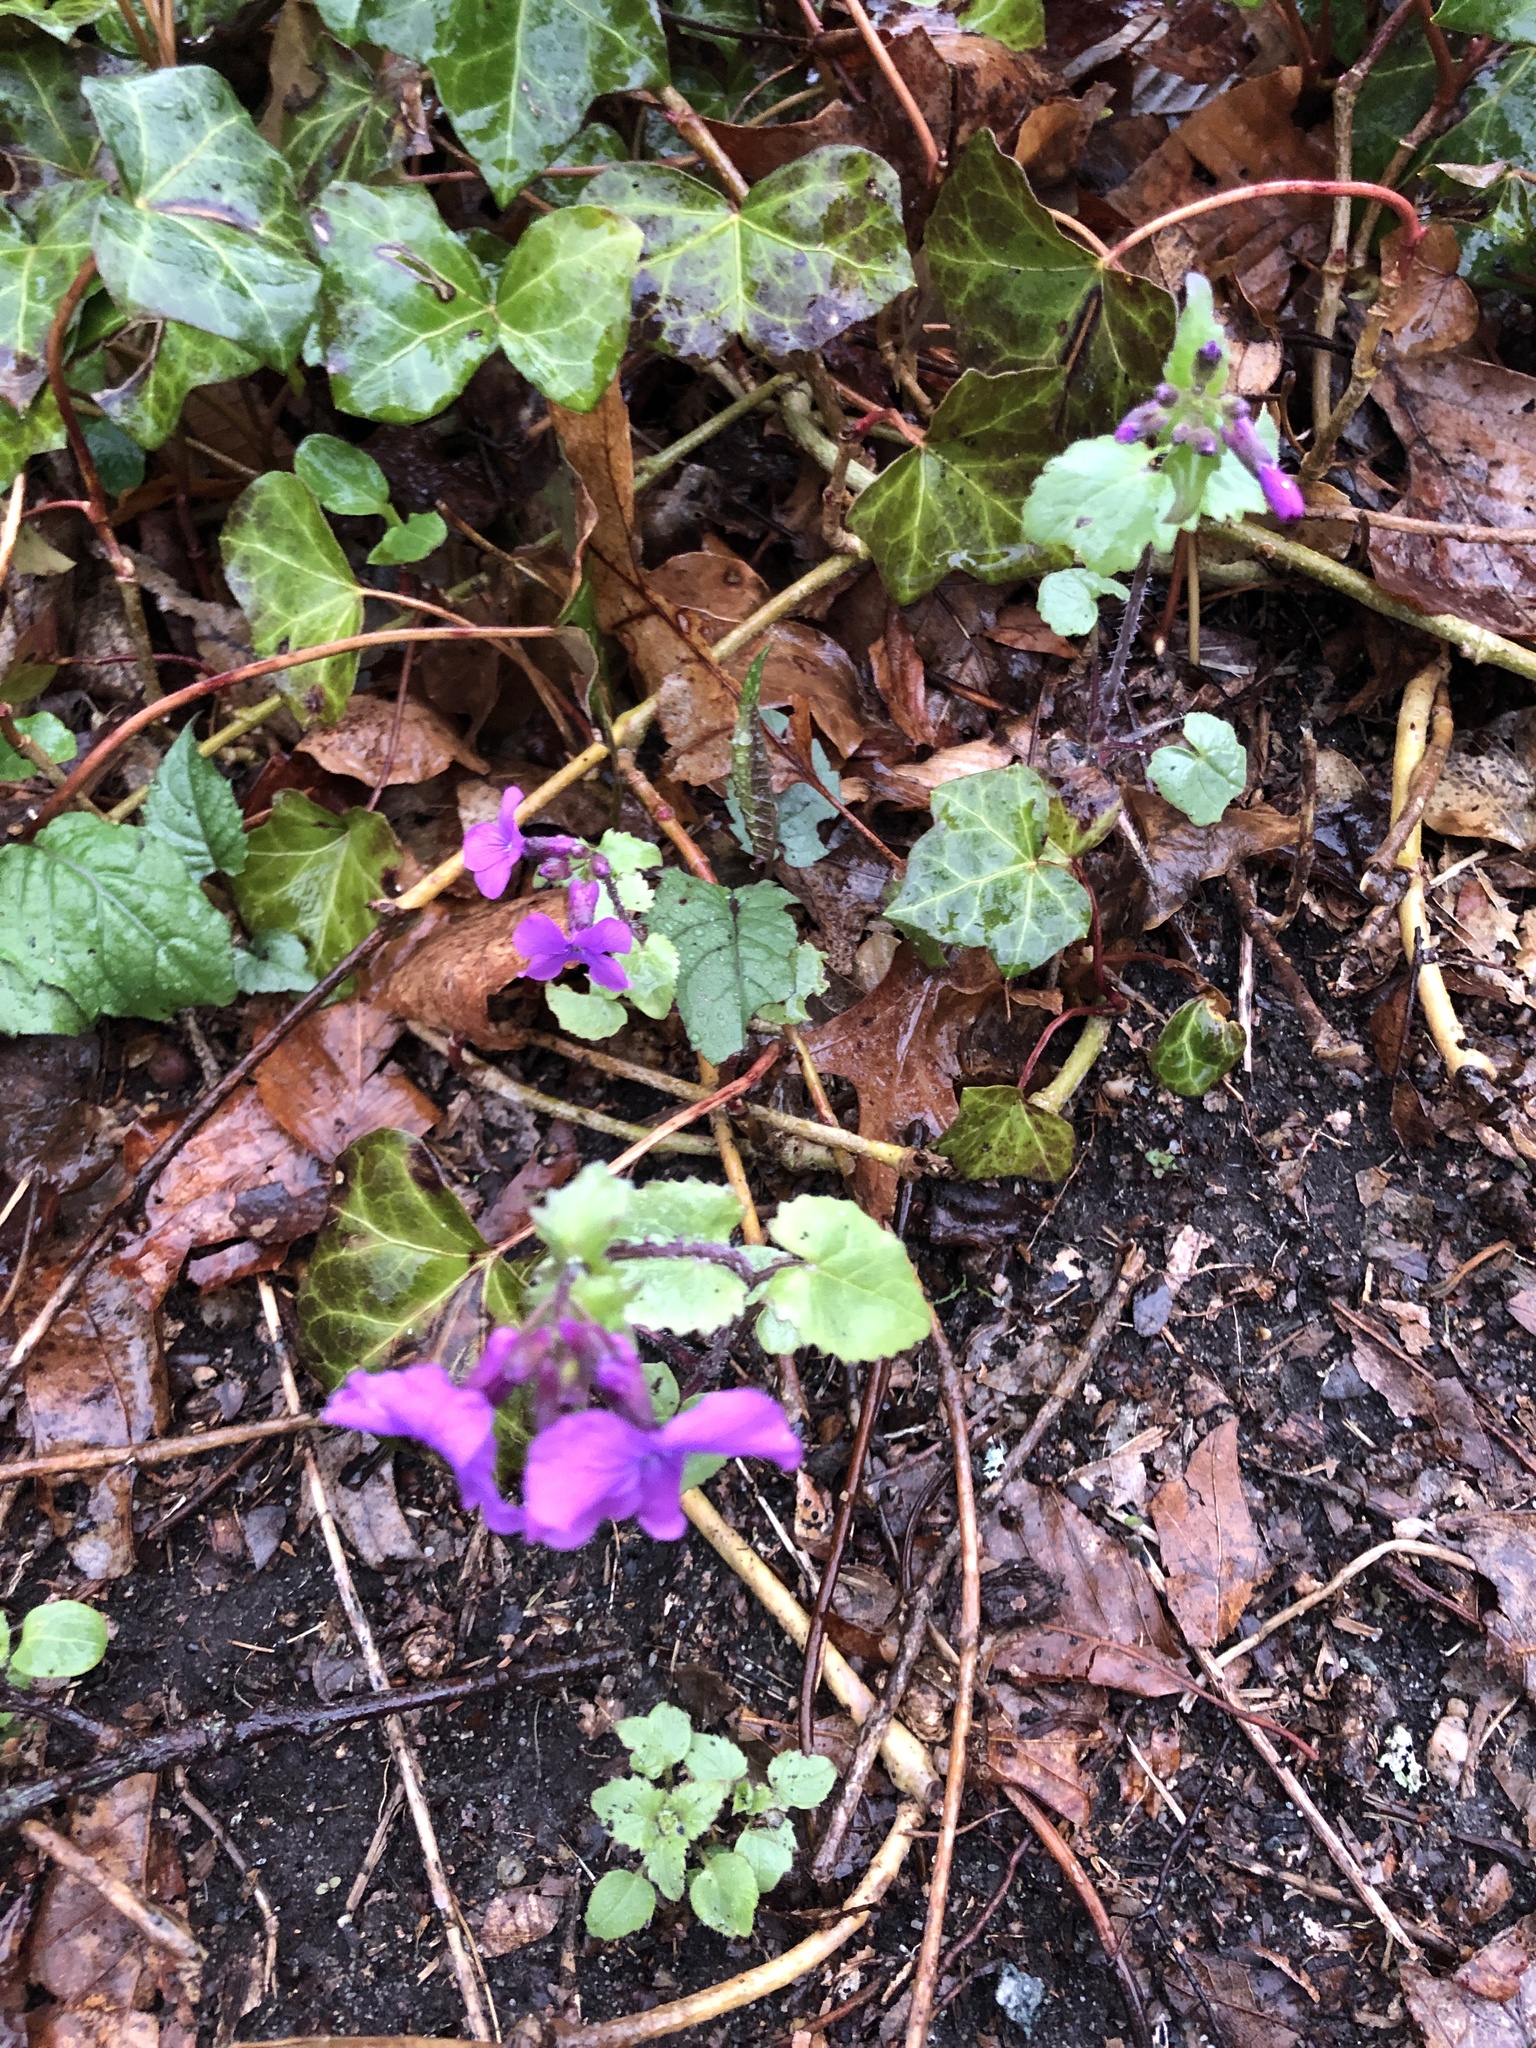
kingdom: Plantae
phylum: Tracheophyta
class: Magnoliopsida
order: Brassicales
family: Brassicaceae
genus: Lunaria
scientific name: Lunaria annua
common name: Honesty
